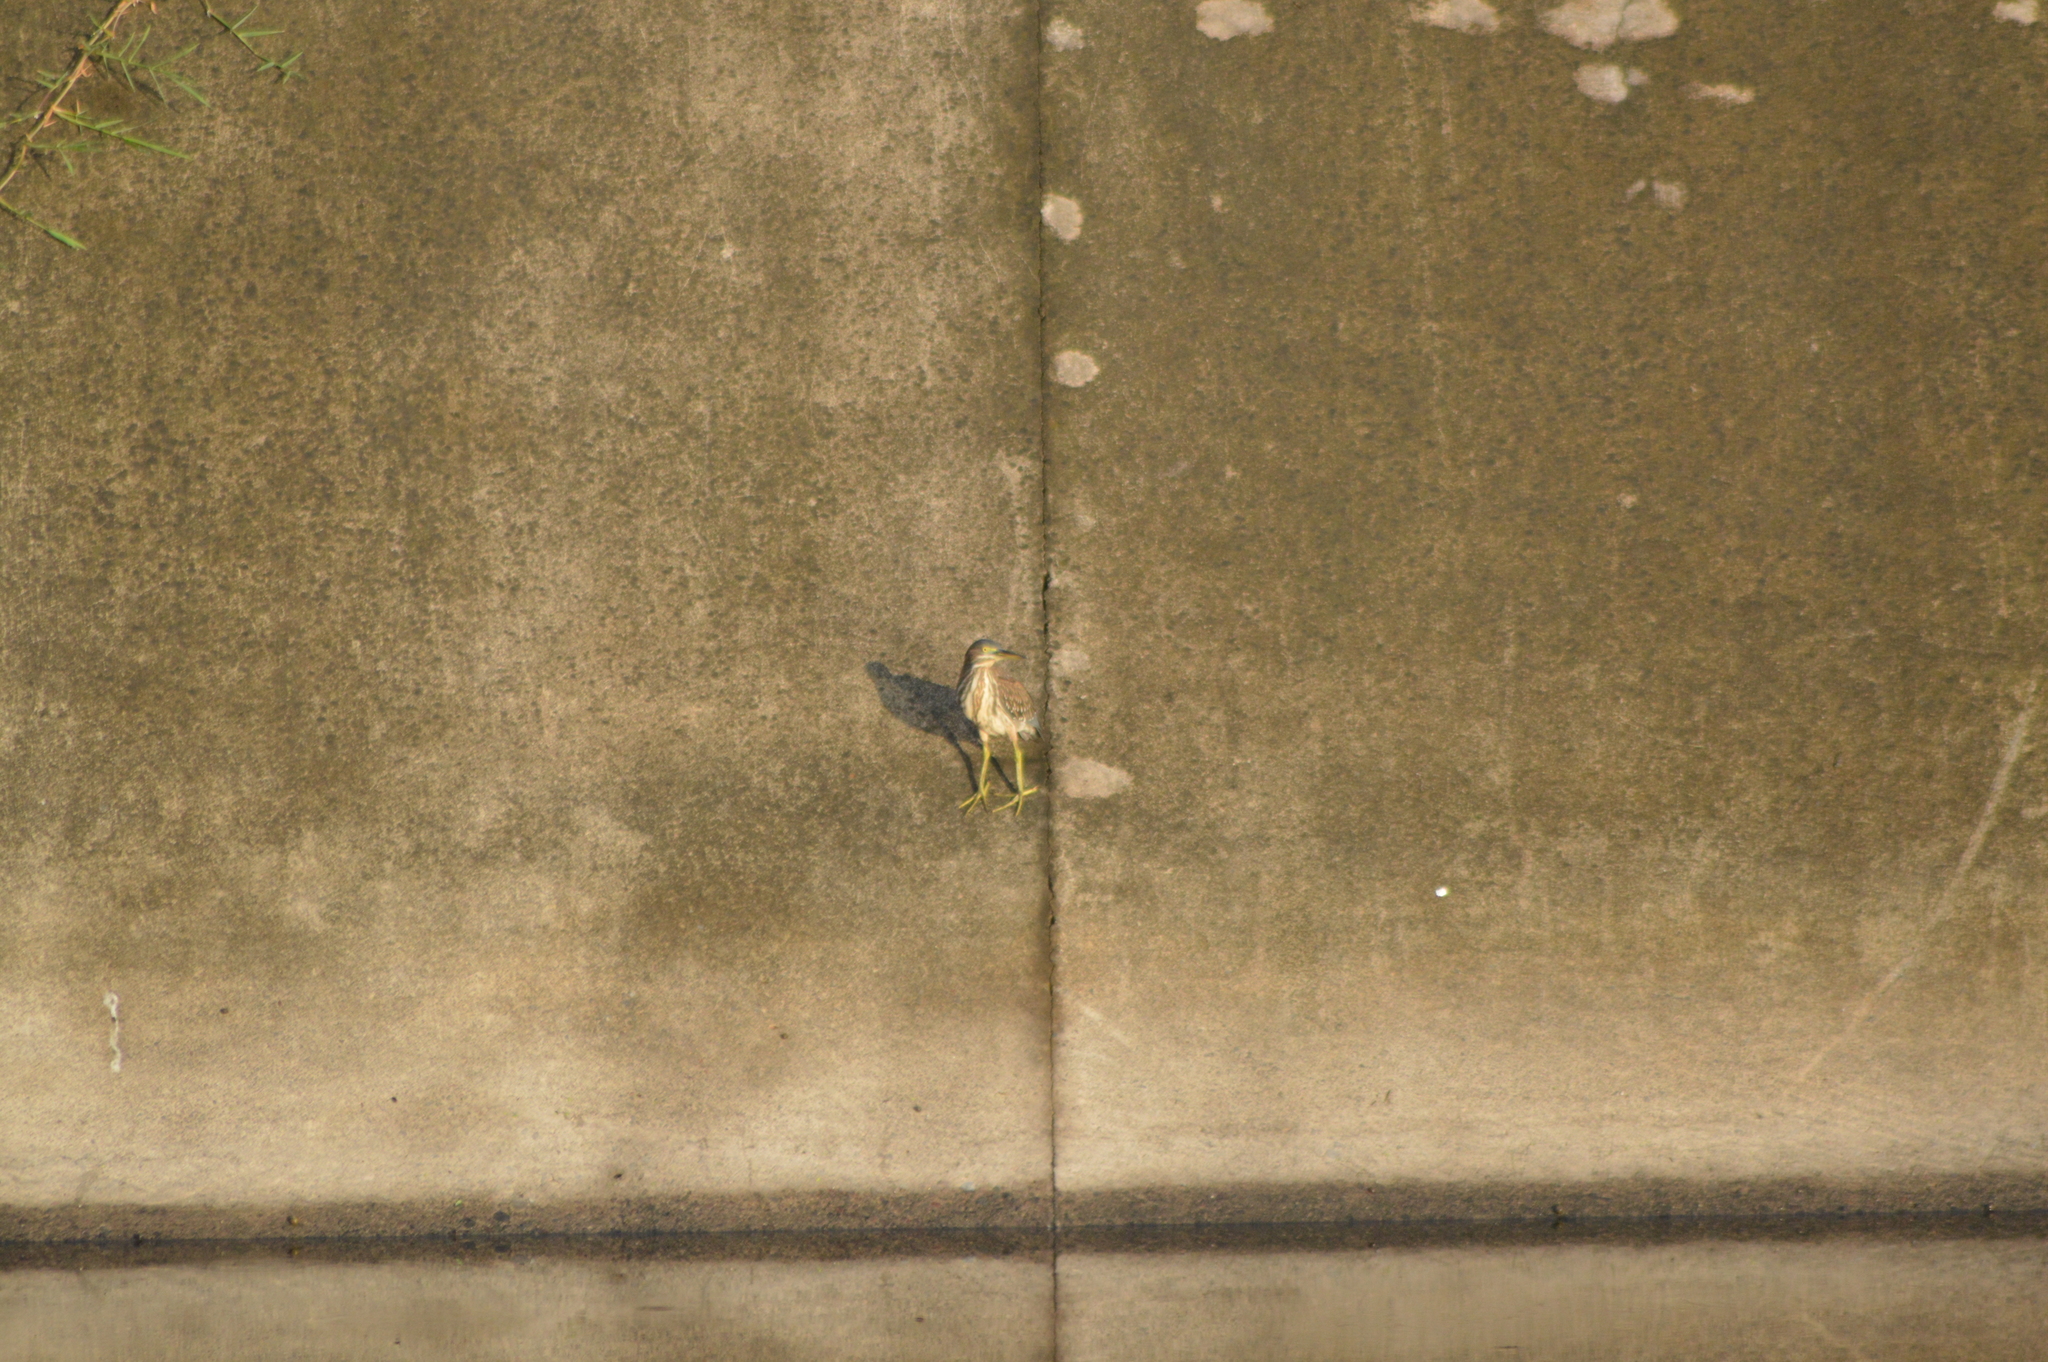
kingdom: Animalia
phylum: Chordata
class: Aves
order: Pelecaniformes
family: Ardeidae
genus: Butorides
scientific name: Butorides virescens
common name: Green heron
